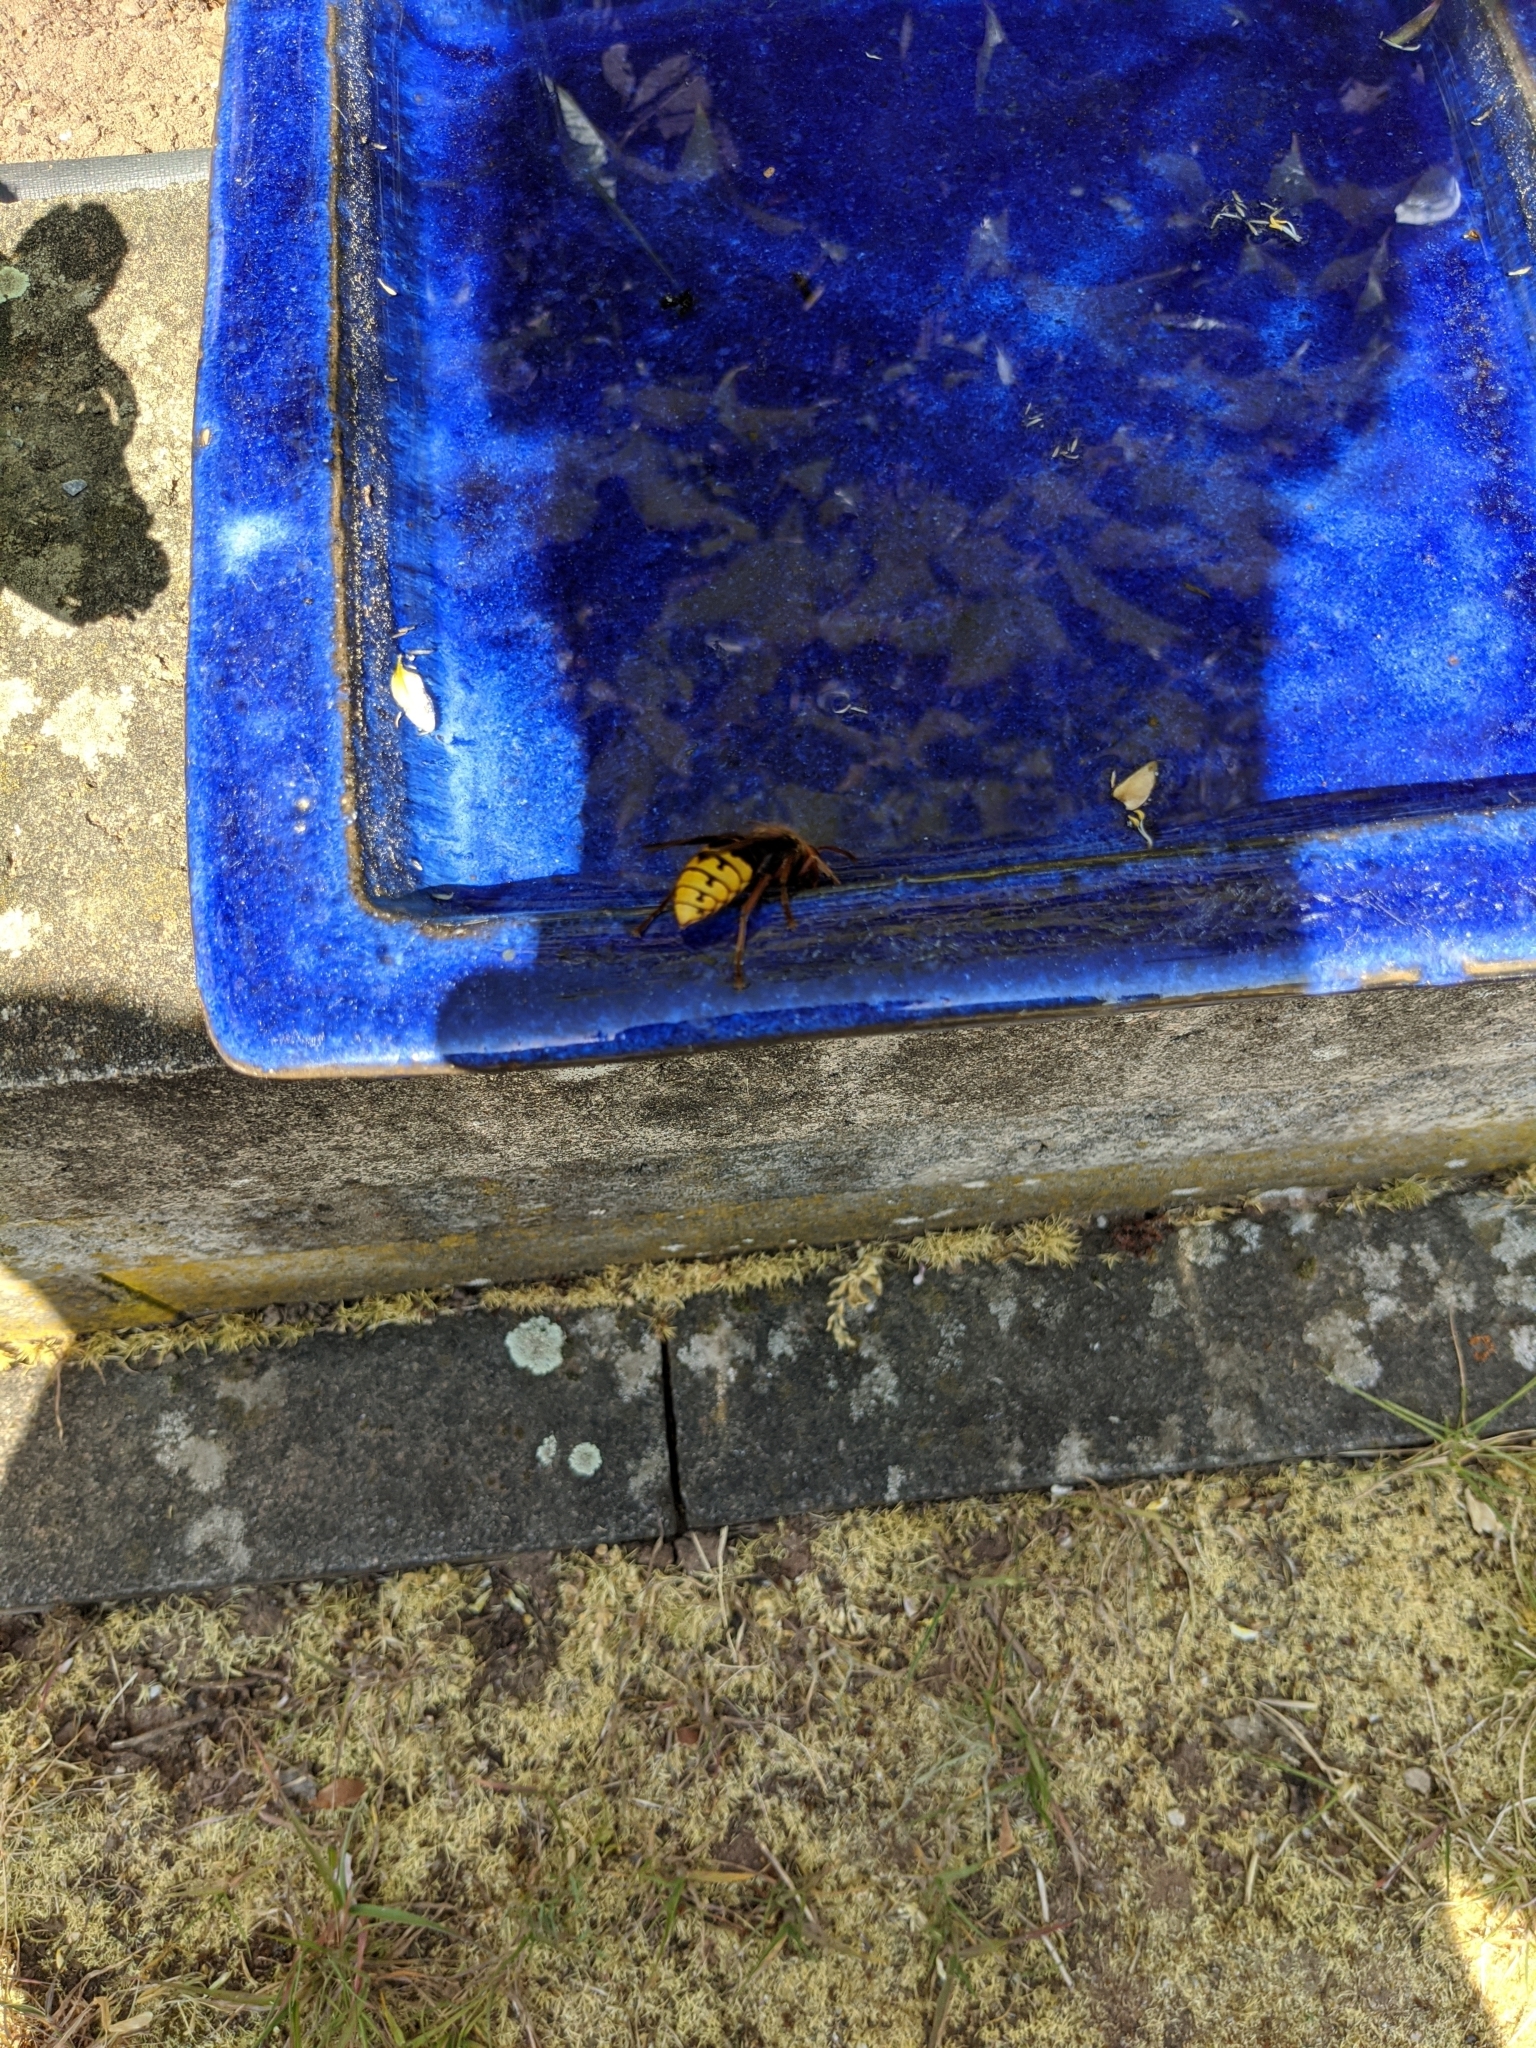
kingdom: Animalia
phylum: Arthropoda
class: Insecta
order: Hymenoptera
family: Vespidae
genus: Vespa
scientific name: Vespa crabro
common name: Hornet
